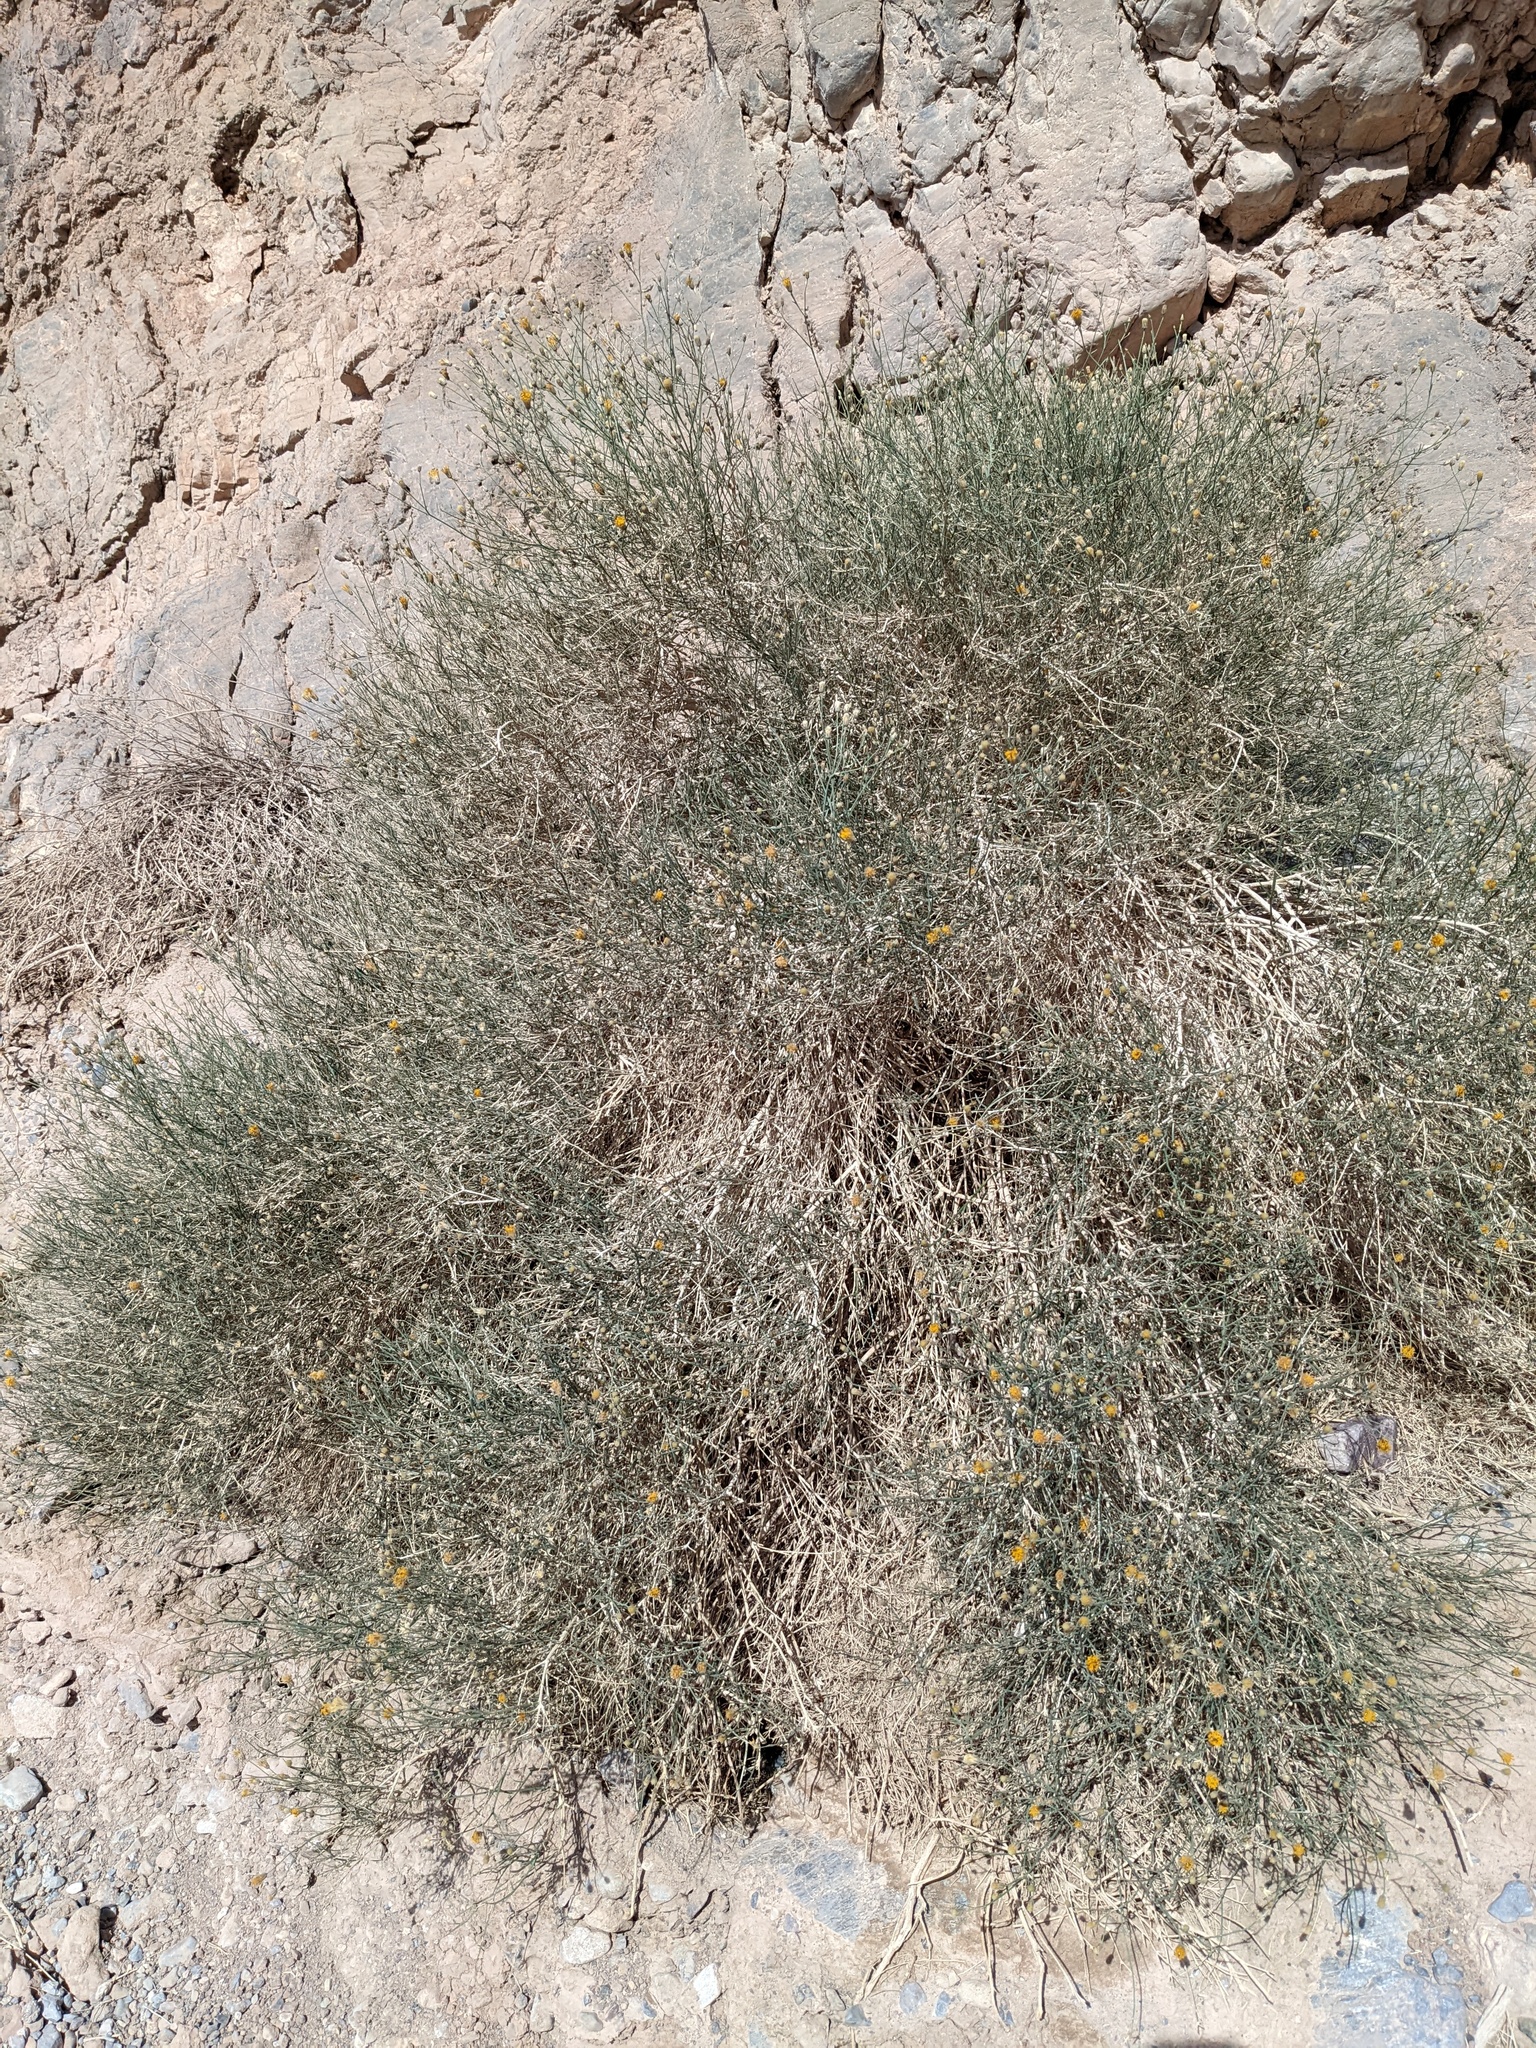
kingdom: Plantae
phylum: Tracheophyta
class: Magnoliopsida
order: Asterales
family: Asteraceae
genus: Bebbia
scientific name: Bebbia juncea
